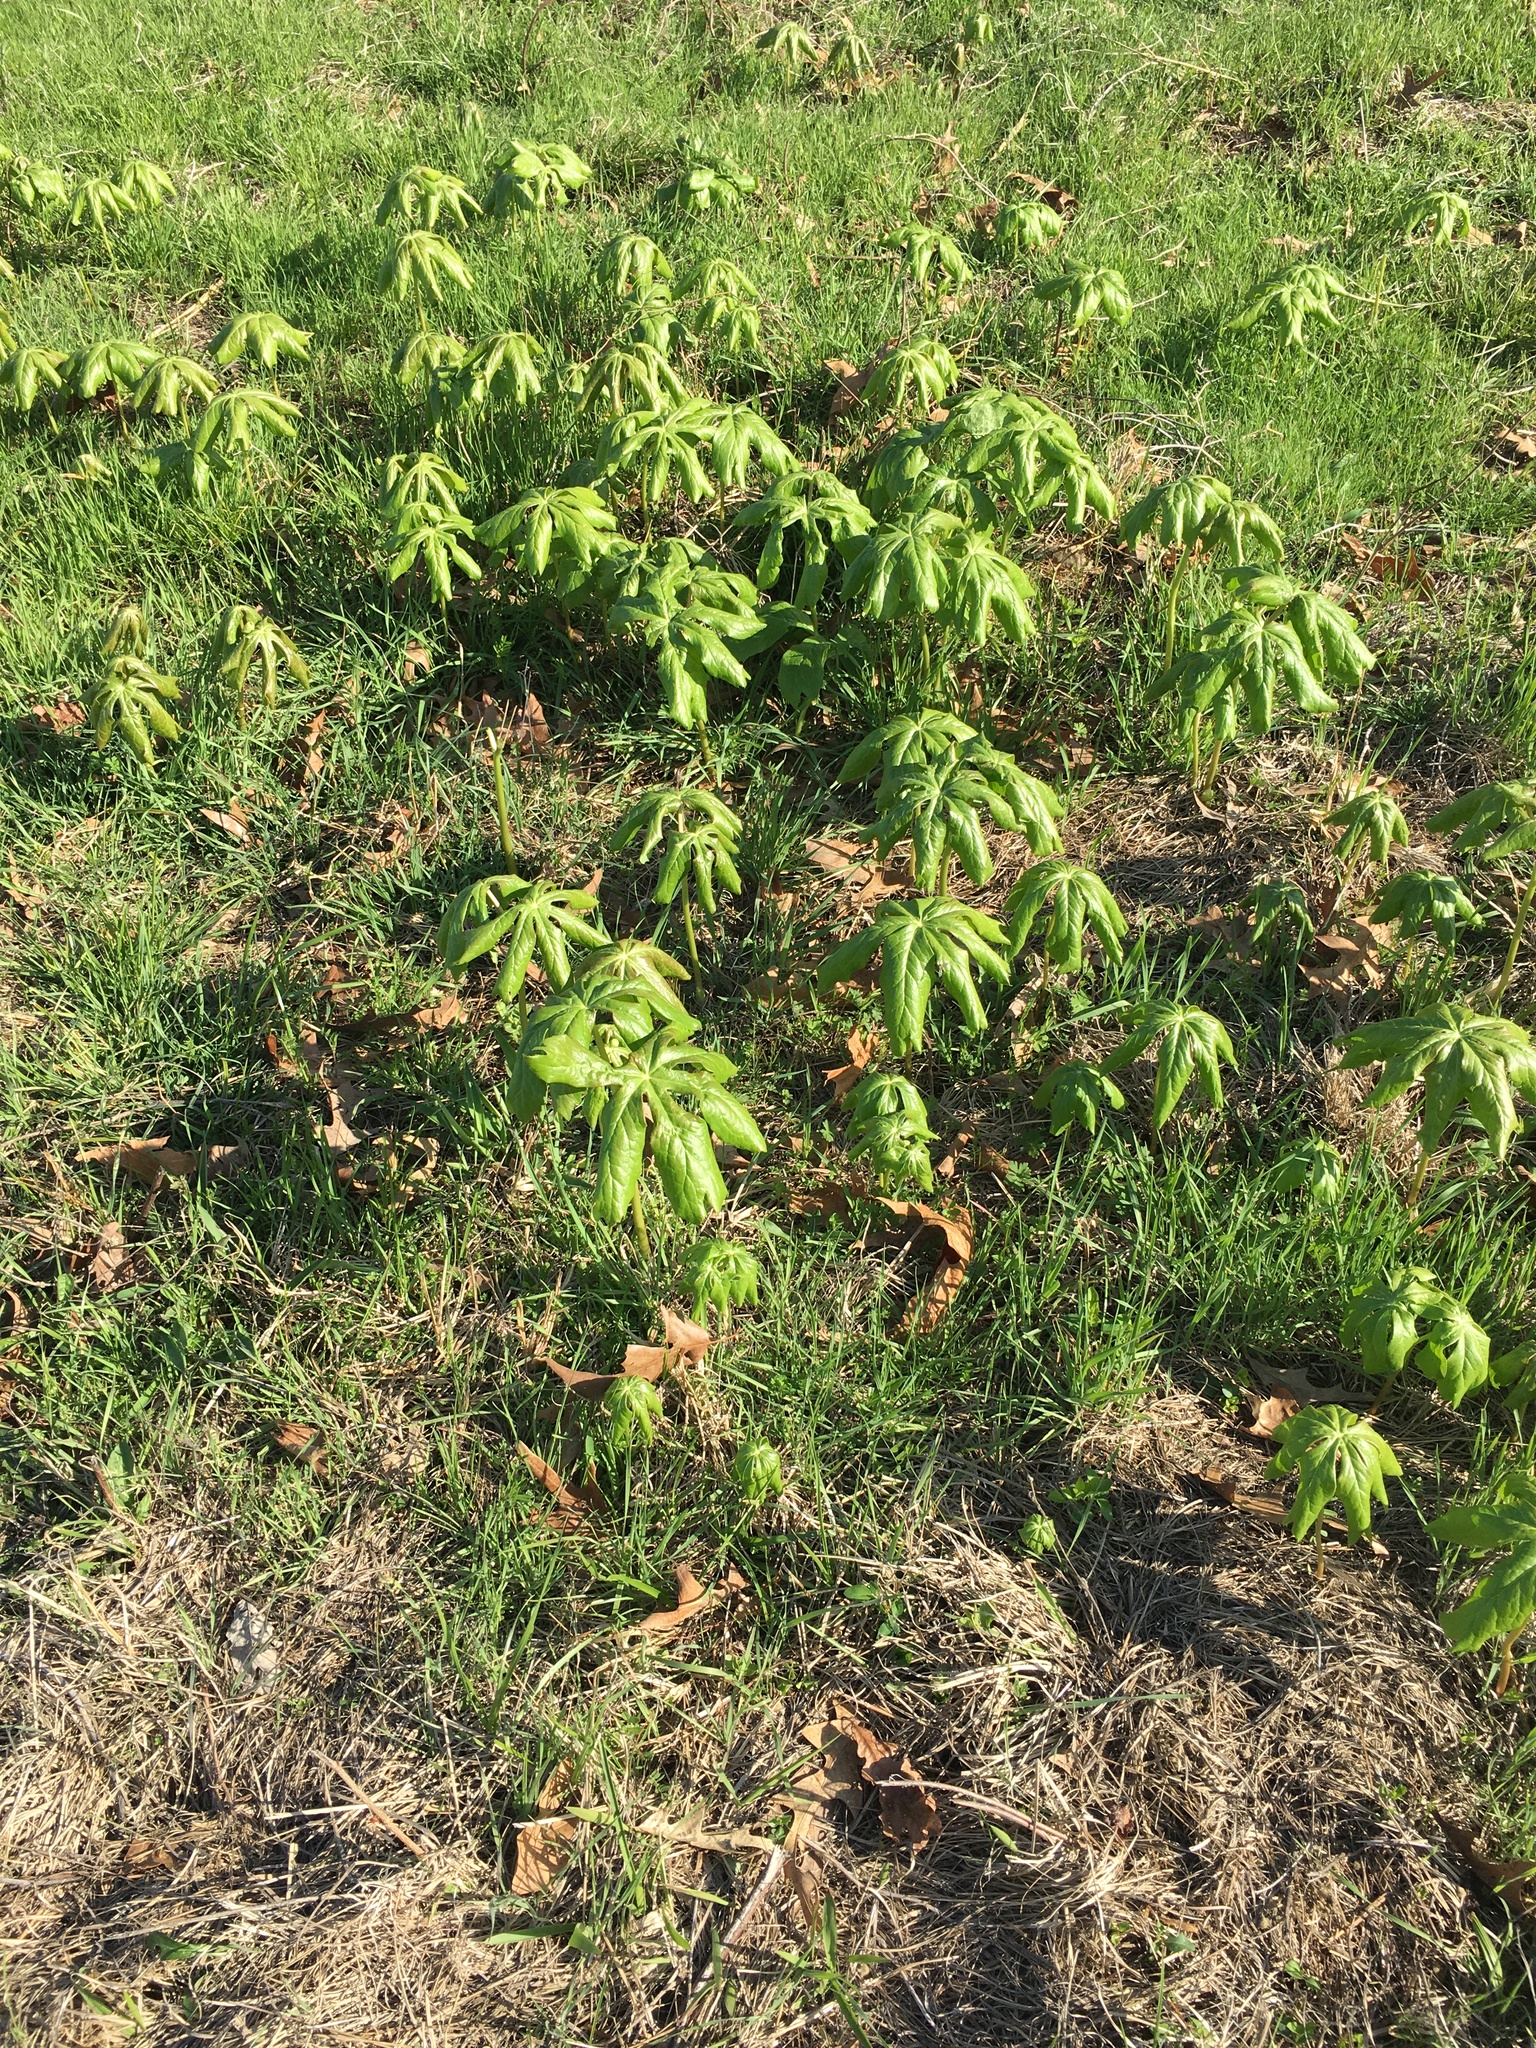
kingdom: Plantae
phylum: Tracheophyta
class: Magnoliopsida
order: Ranunculales
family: Berberidaceae
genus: Podophyllum
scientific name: Podophyllum peltatum
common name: Wild mandrake
